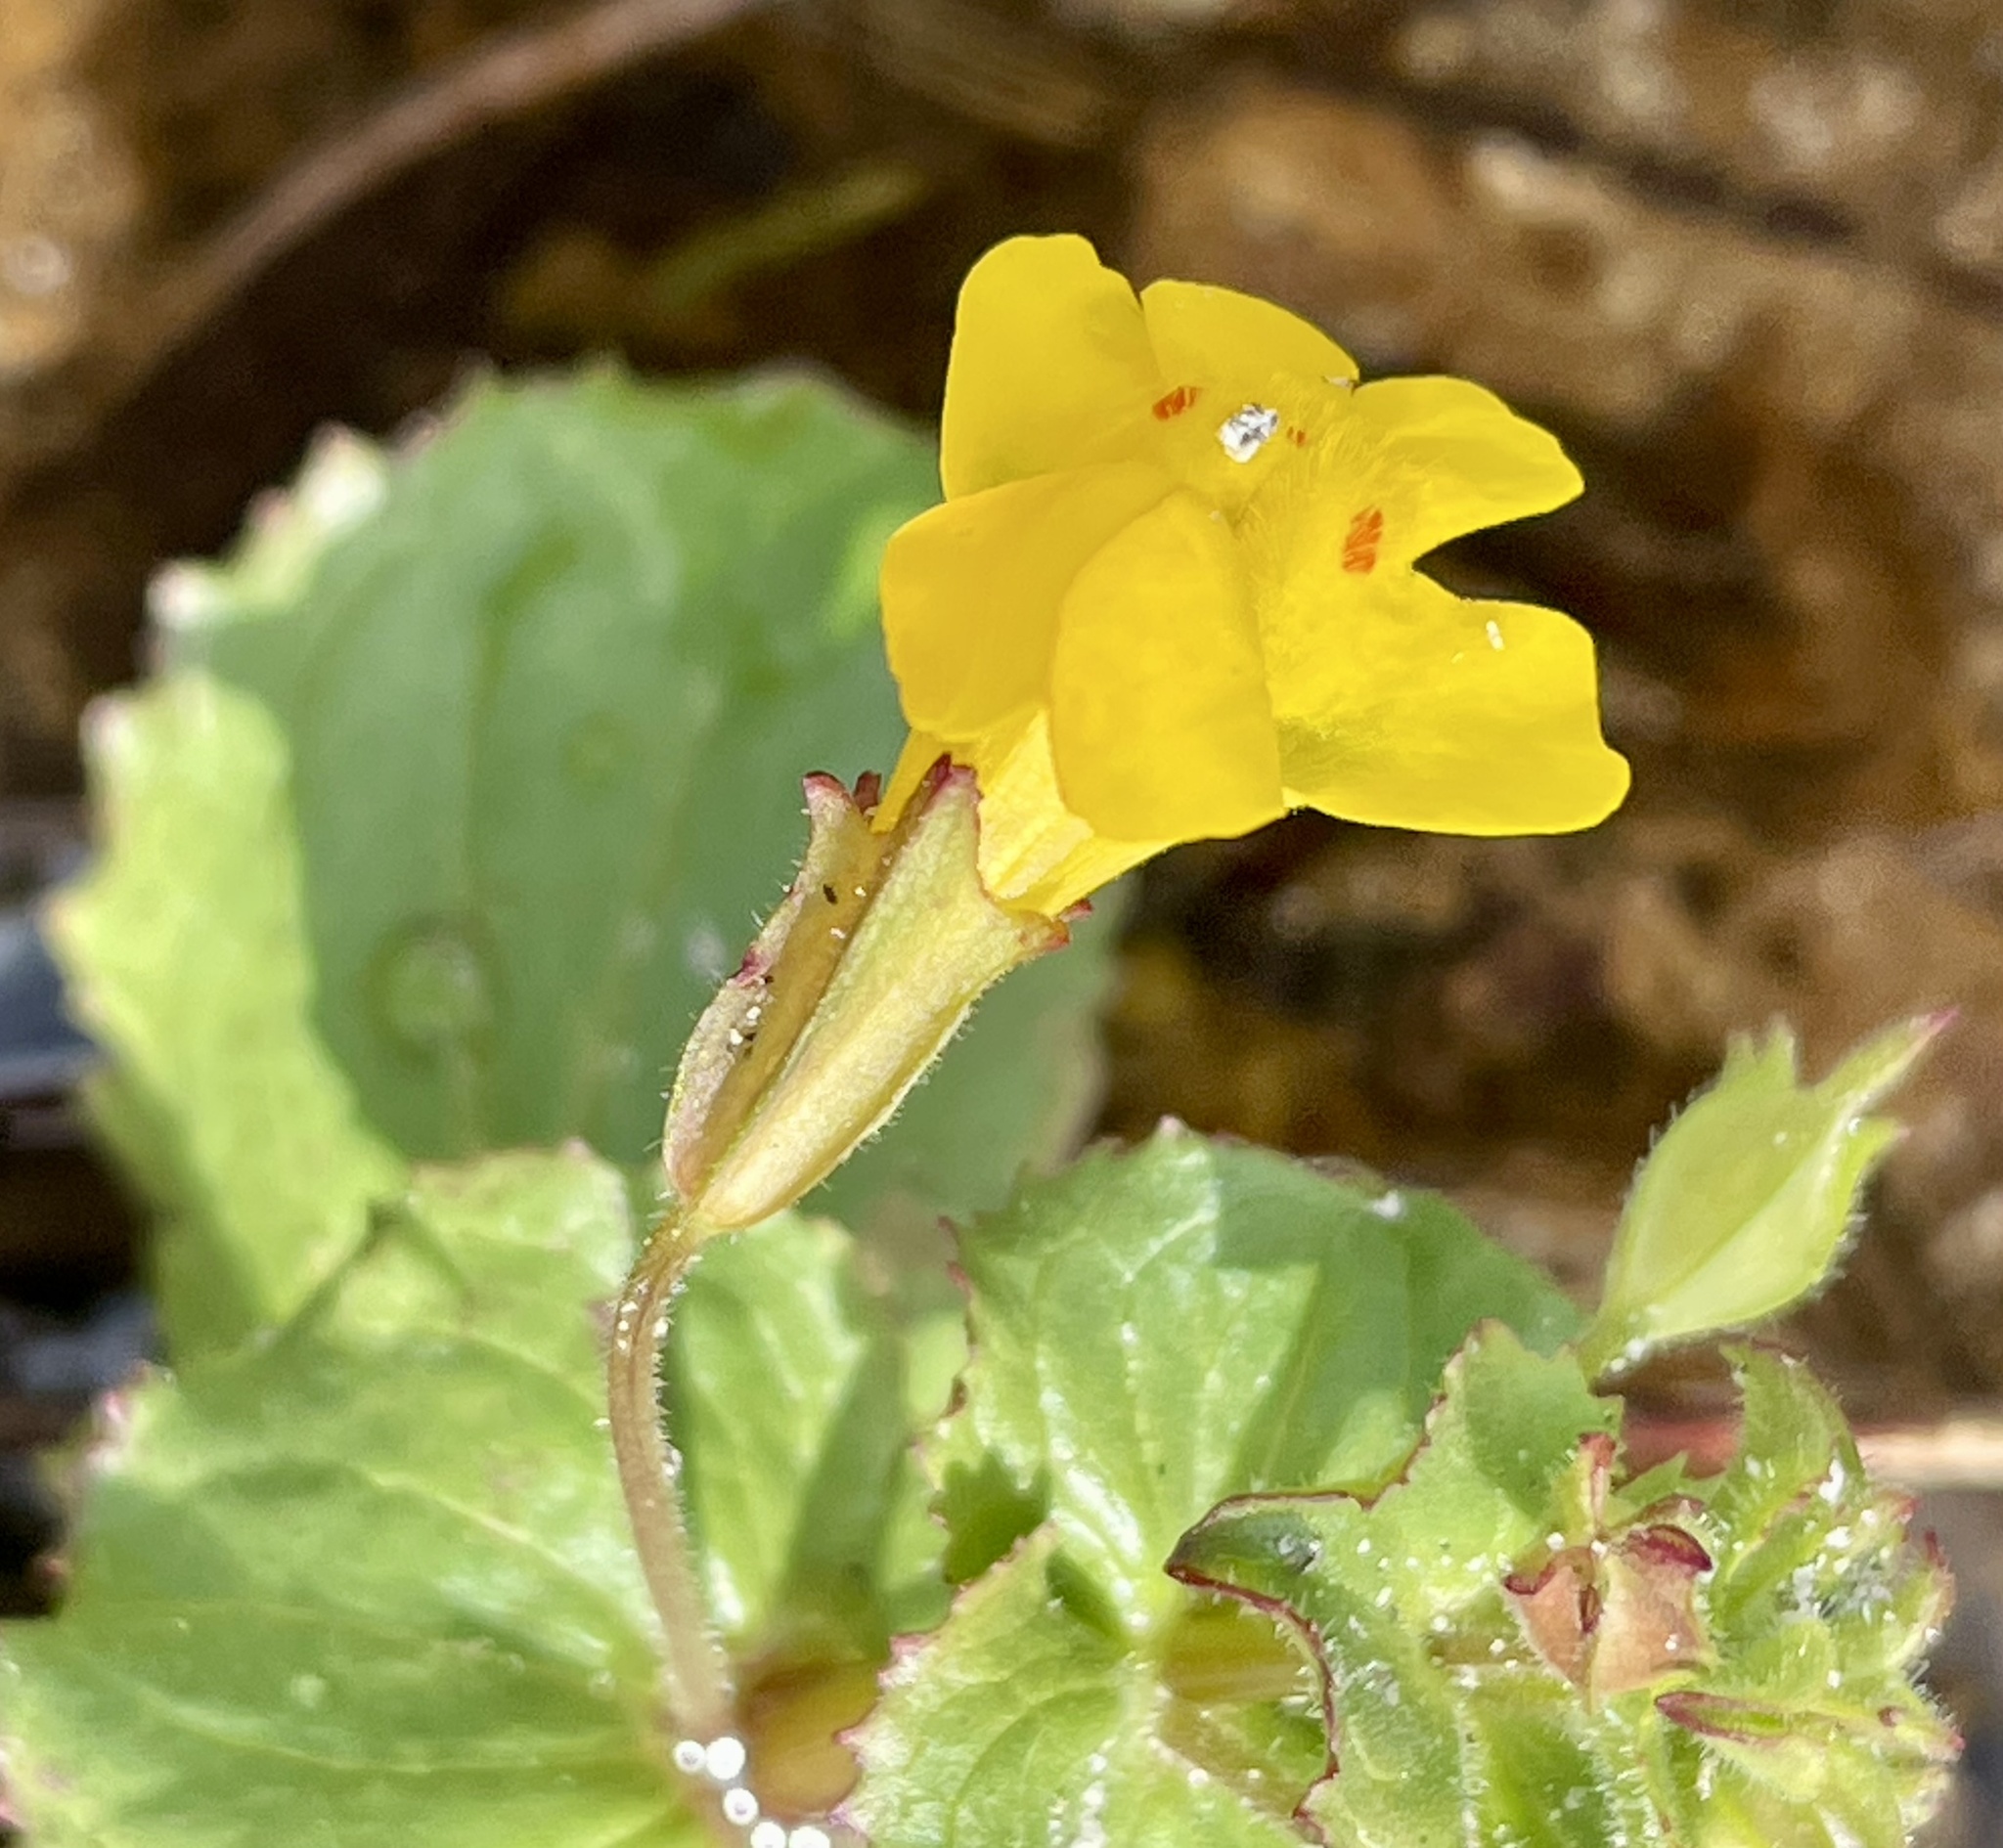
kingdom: Plantae
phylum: Tracheophyta
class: Magnoliopsida
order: Lamiales
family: Phrymaceae
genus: Erythranthe
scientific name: Erythranthe guttata
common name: Monkeyflower
